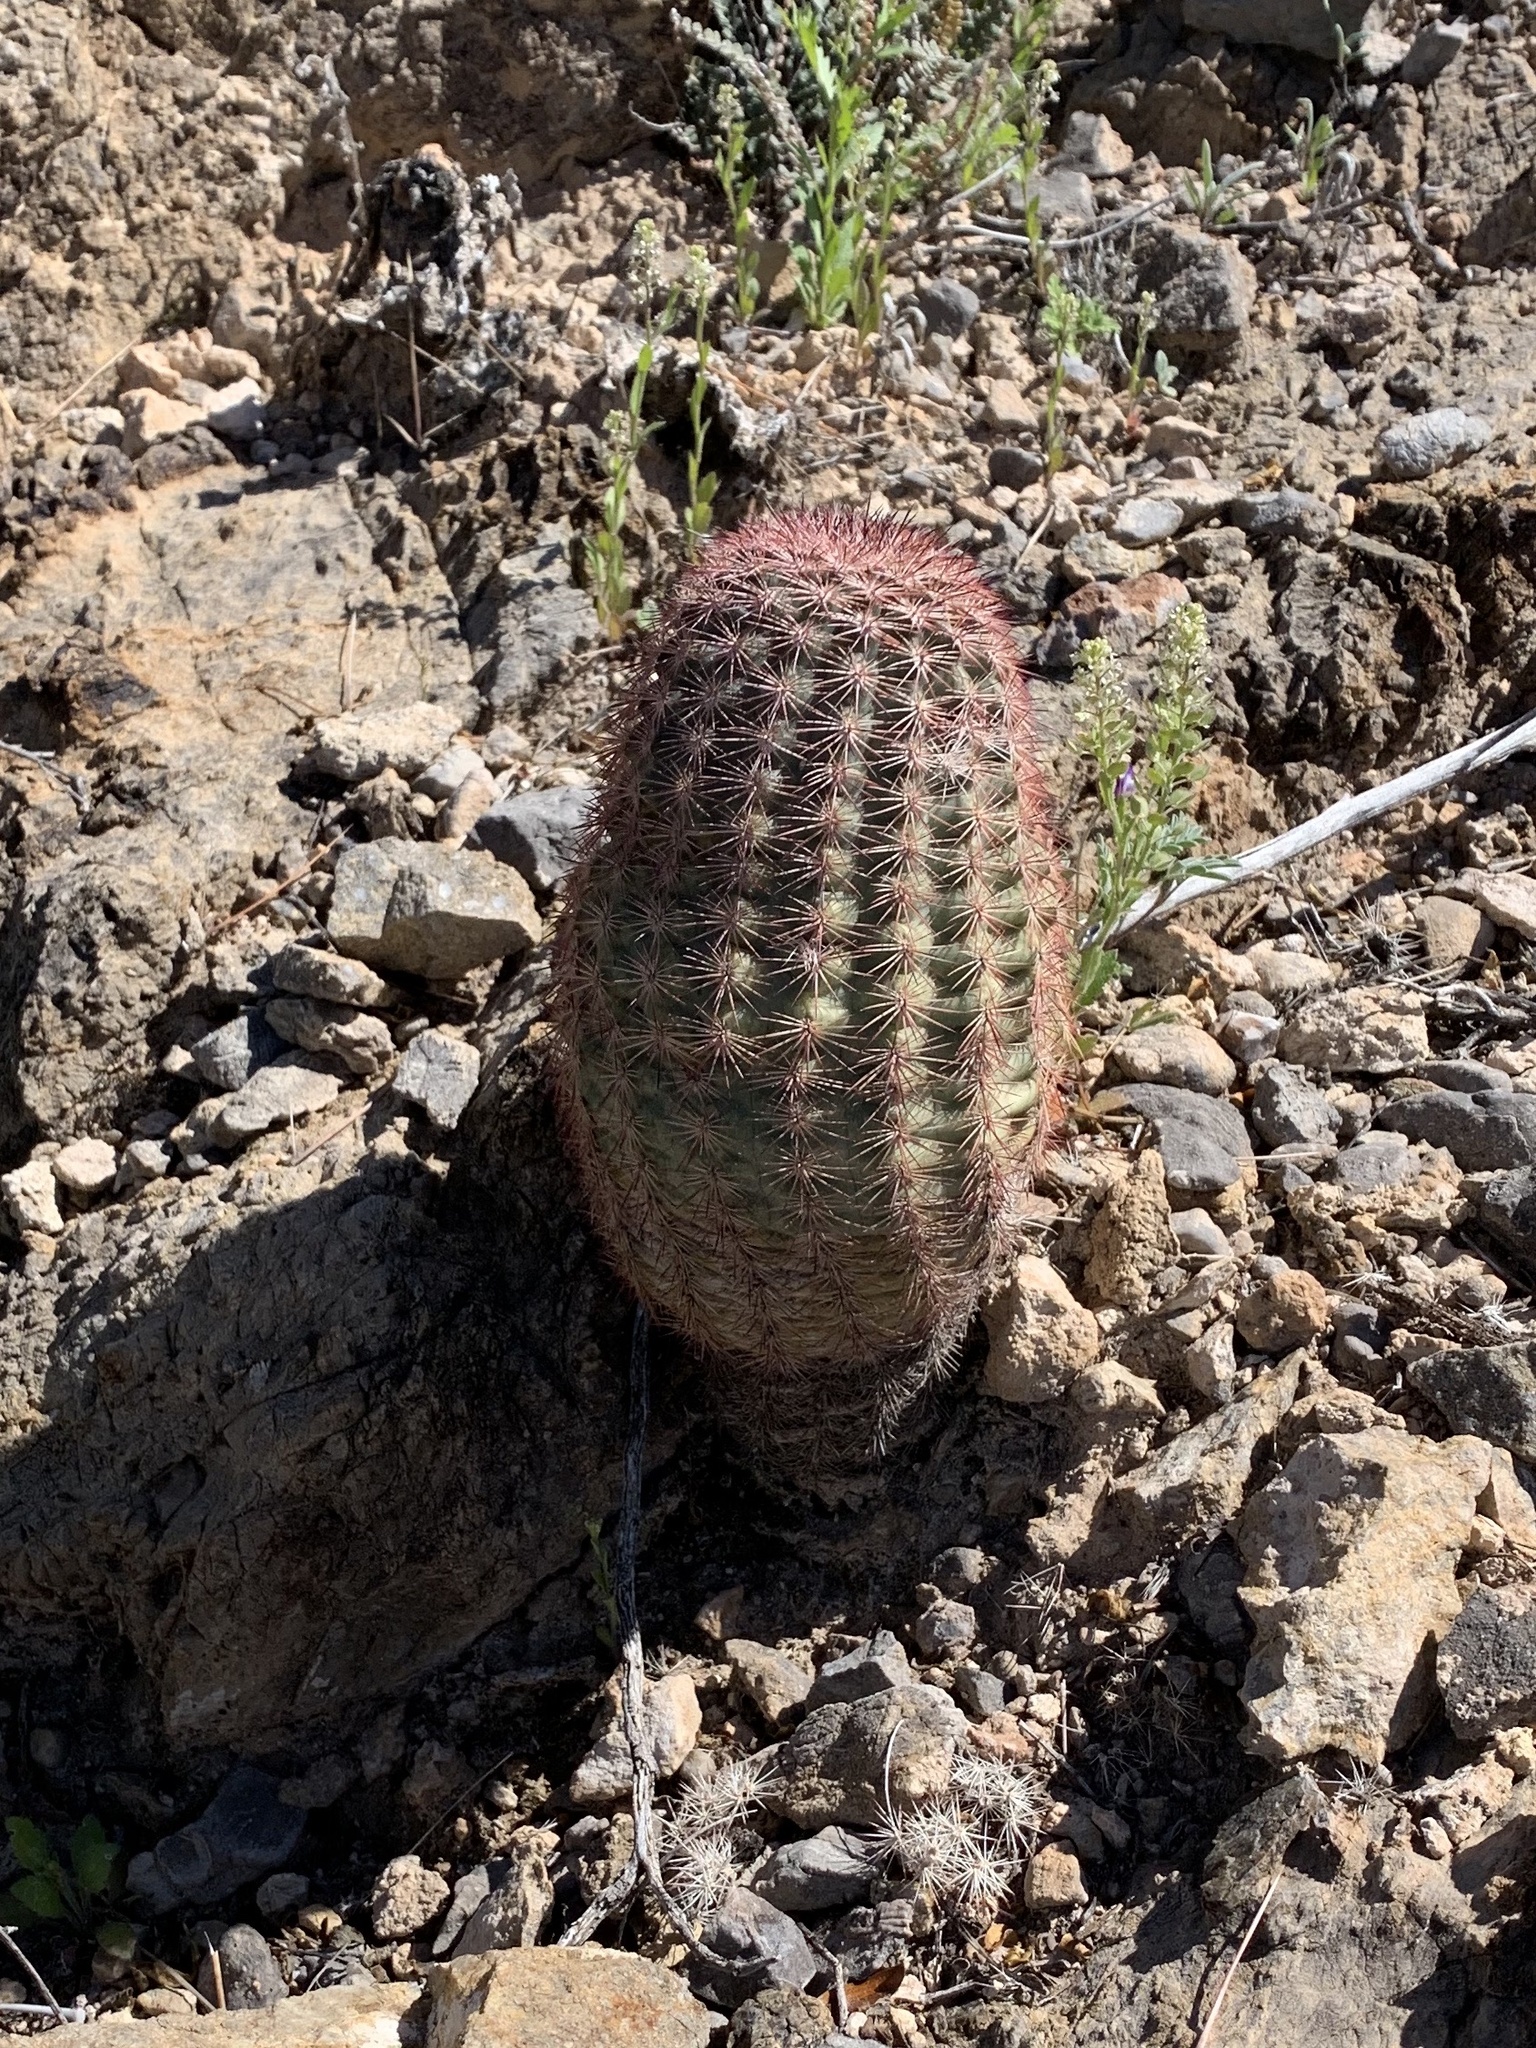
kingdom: Plantae
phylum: Tracheophyta
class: Magnoliopsida
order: Caryophyllales
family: Cactaceae
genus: Echinocereus
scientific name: Echinocereus dasyacanthus
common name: Spiny hedgehog cactus
